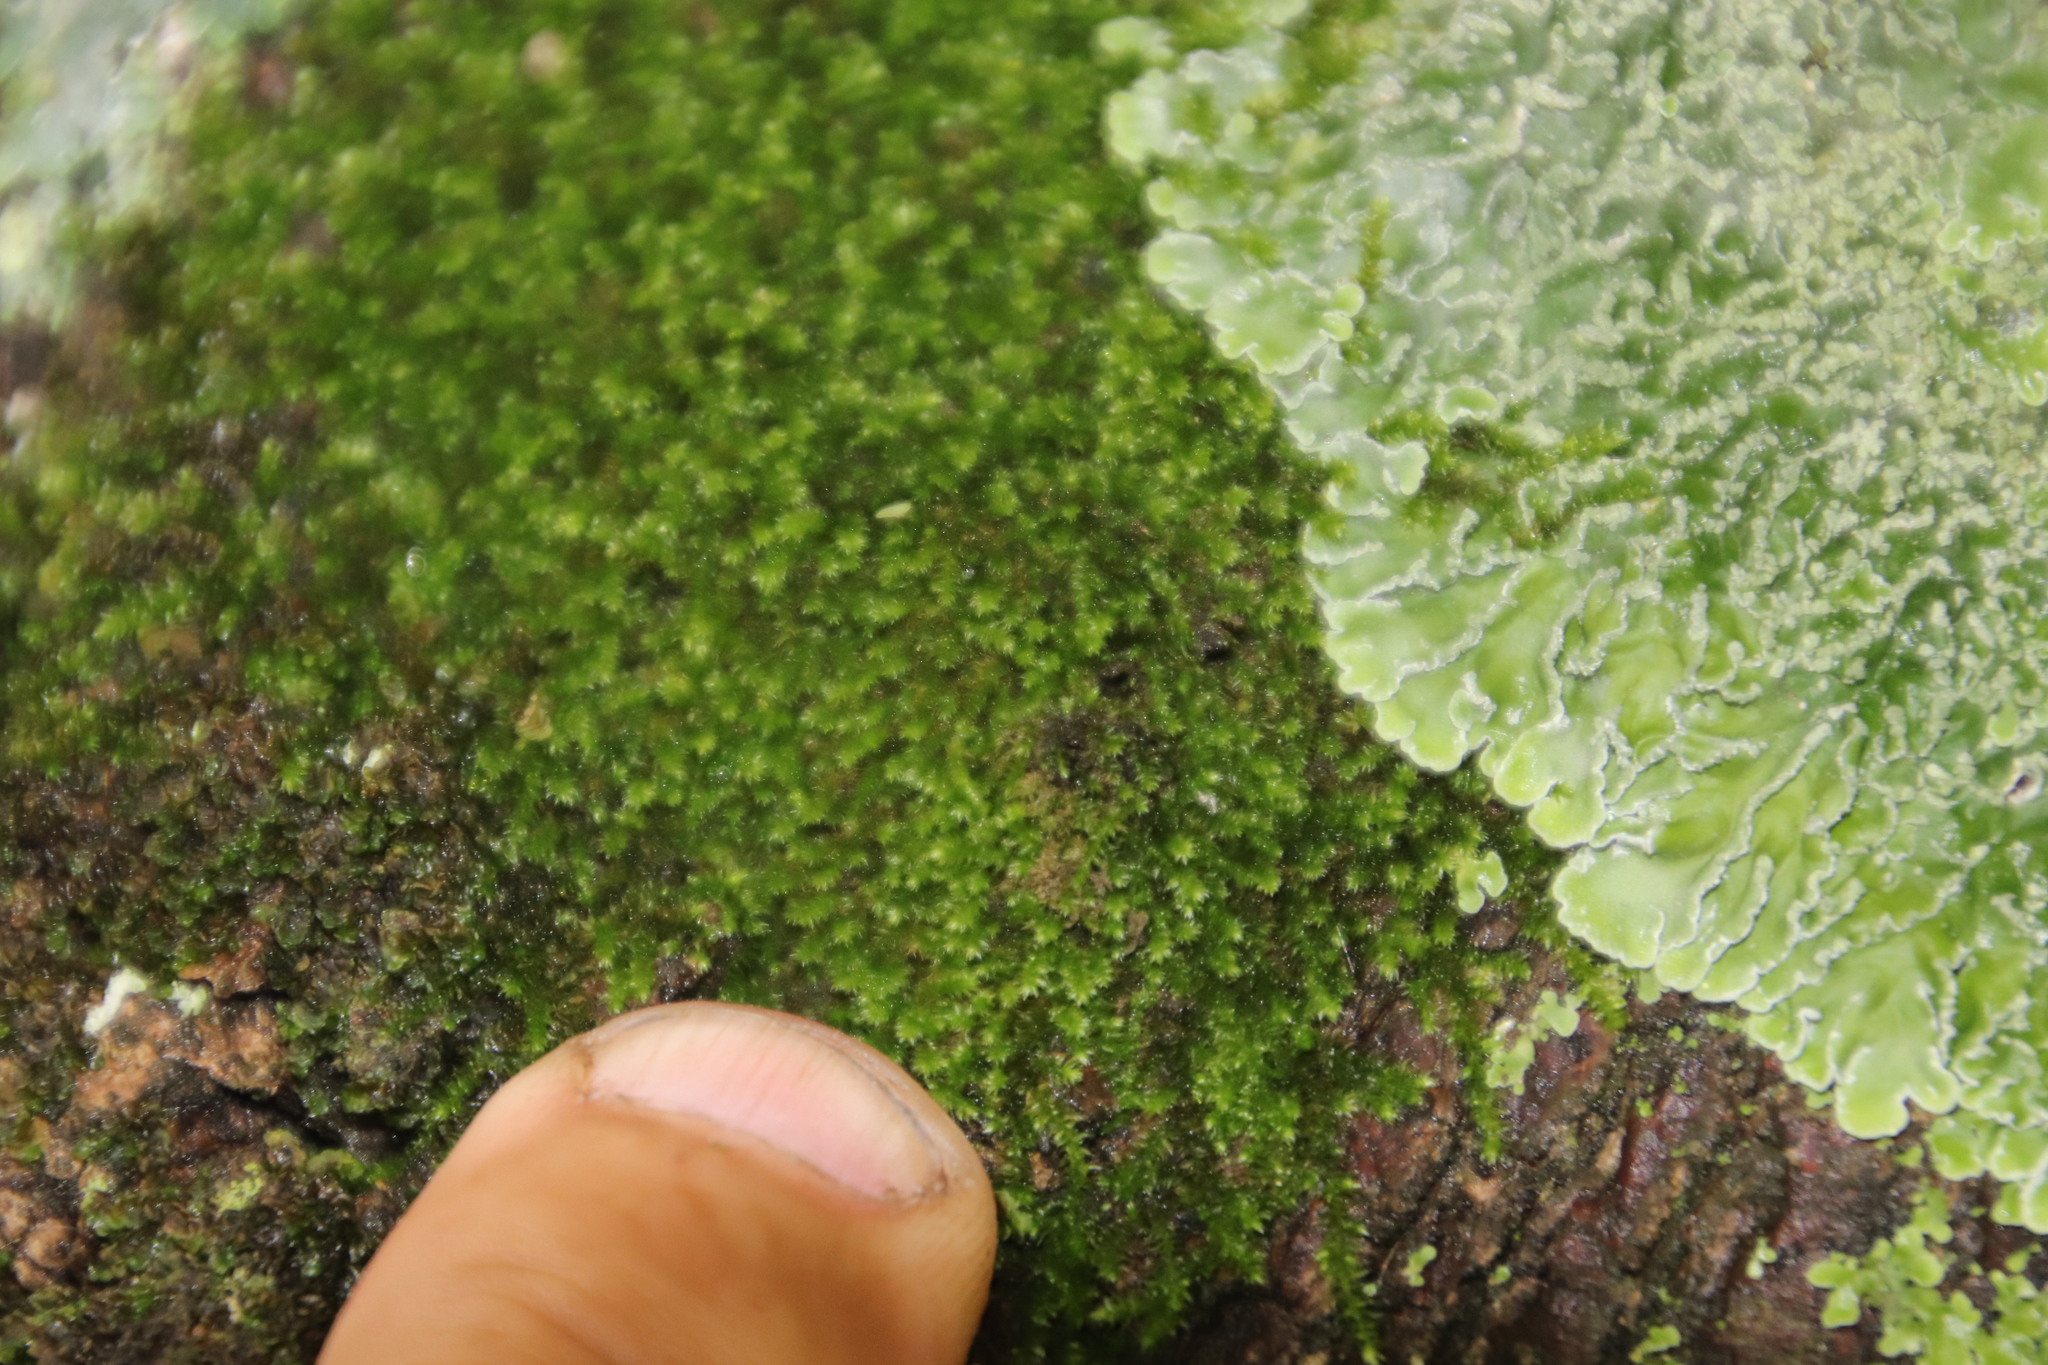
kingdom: Plantae
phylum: Bryophyta
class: Bryopsida
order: Hypnales
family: Fabroniaceae
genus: Fabronia
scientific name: Fabronia pilifera
